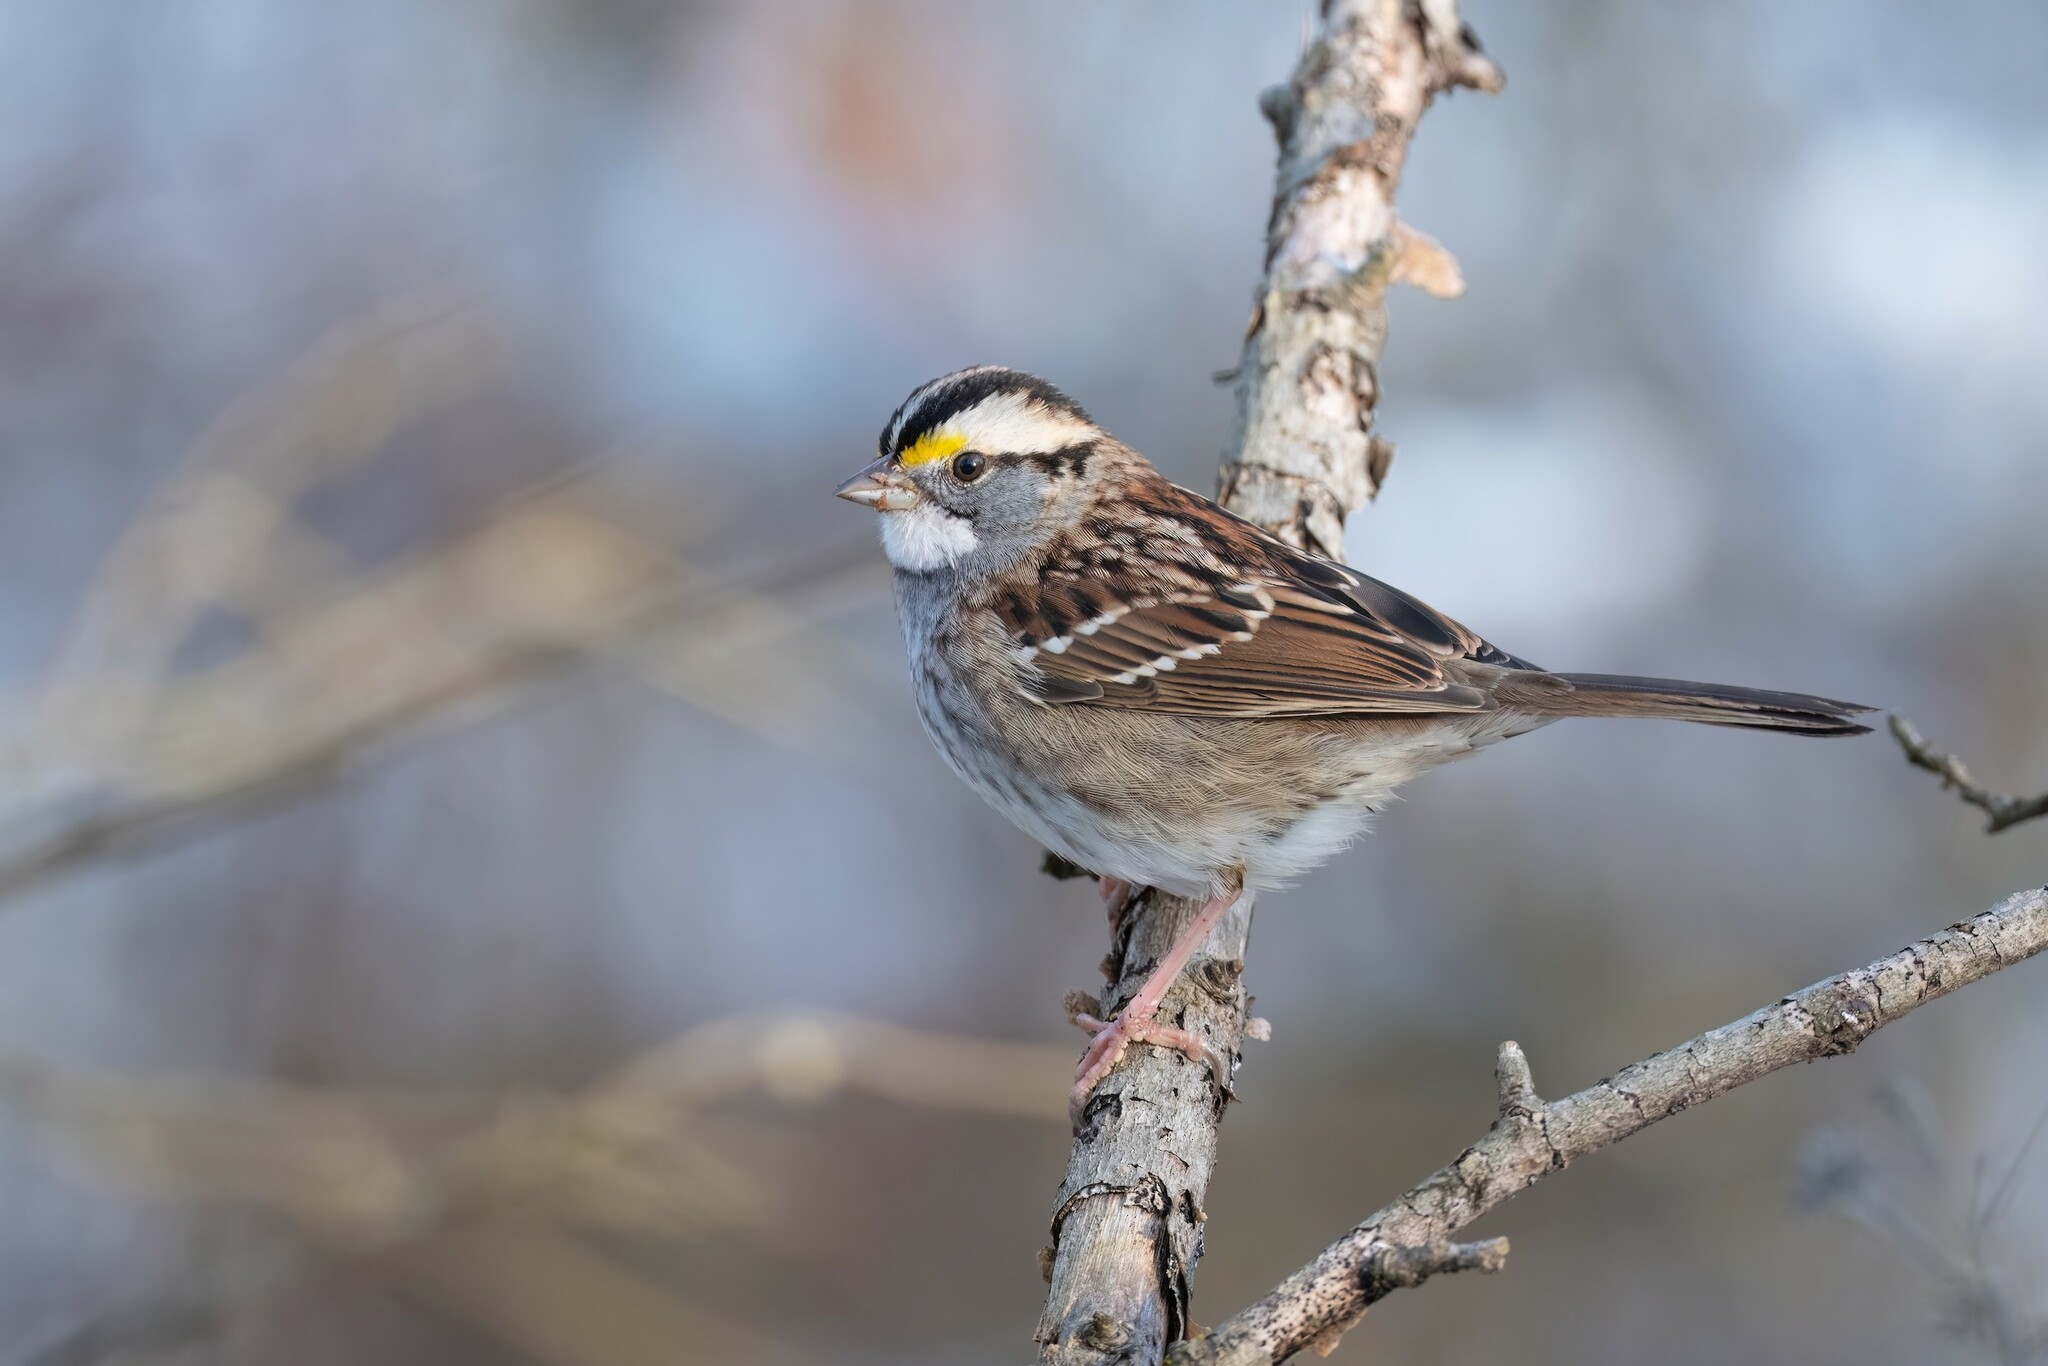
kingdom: Animalia
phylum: Chordata
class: Aves
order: Passeriformes
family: Passerellidae
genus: Zonotrichia
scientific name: Zonotrichia albicollis
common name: White-throated sparrow
